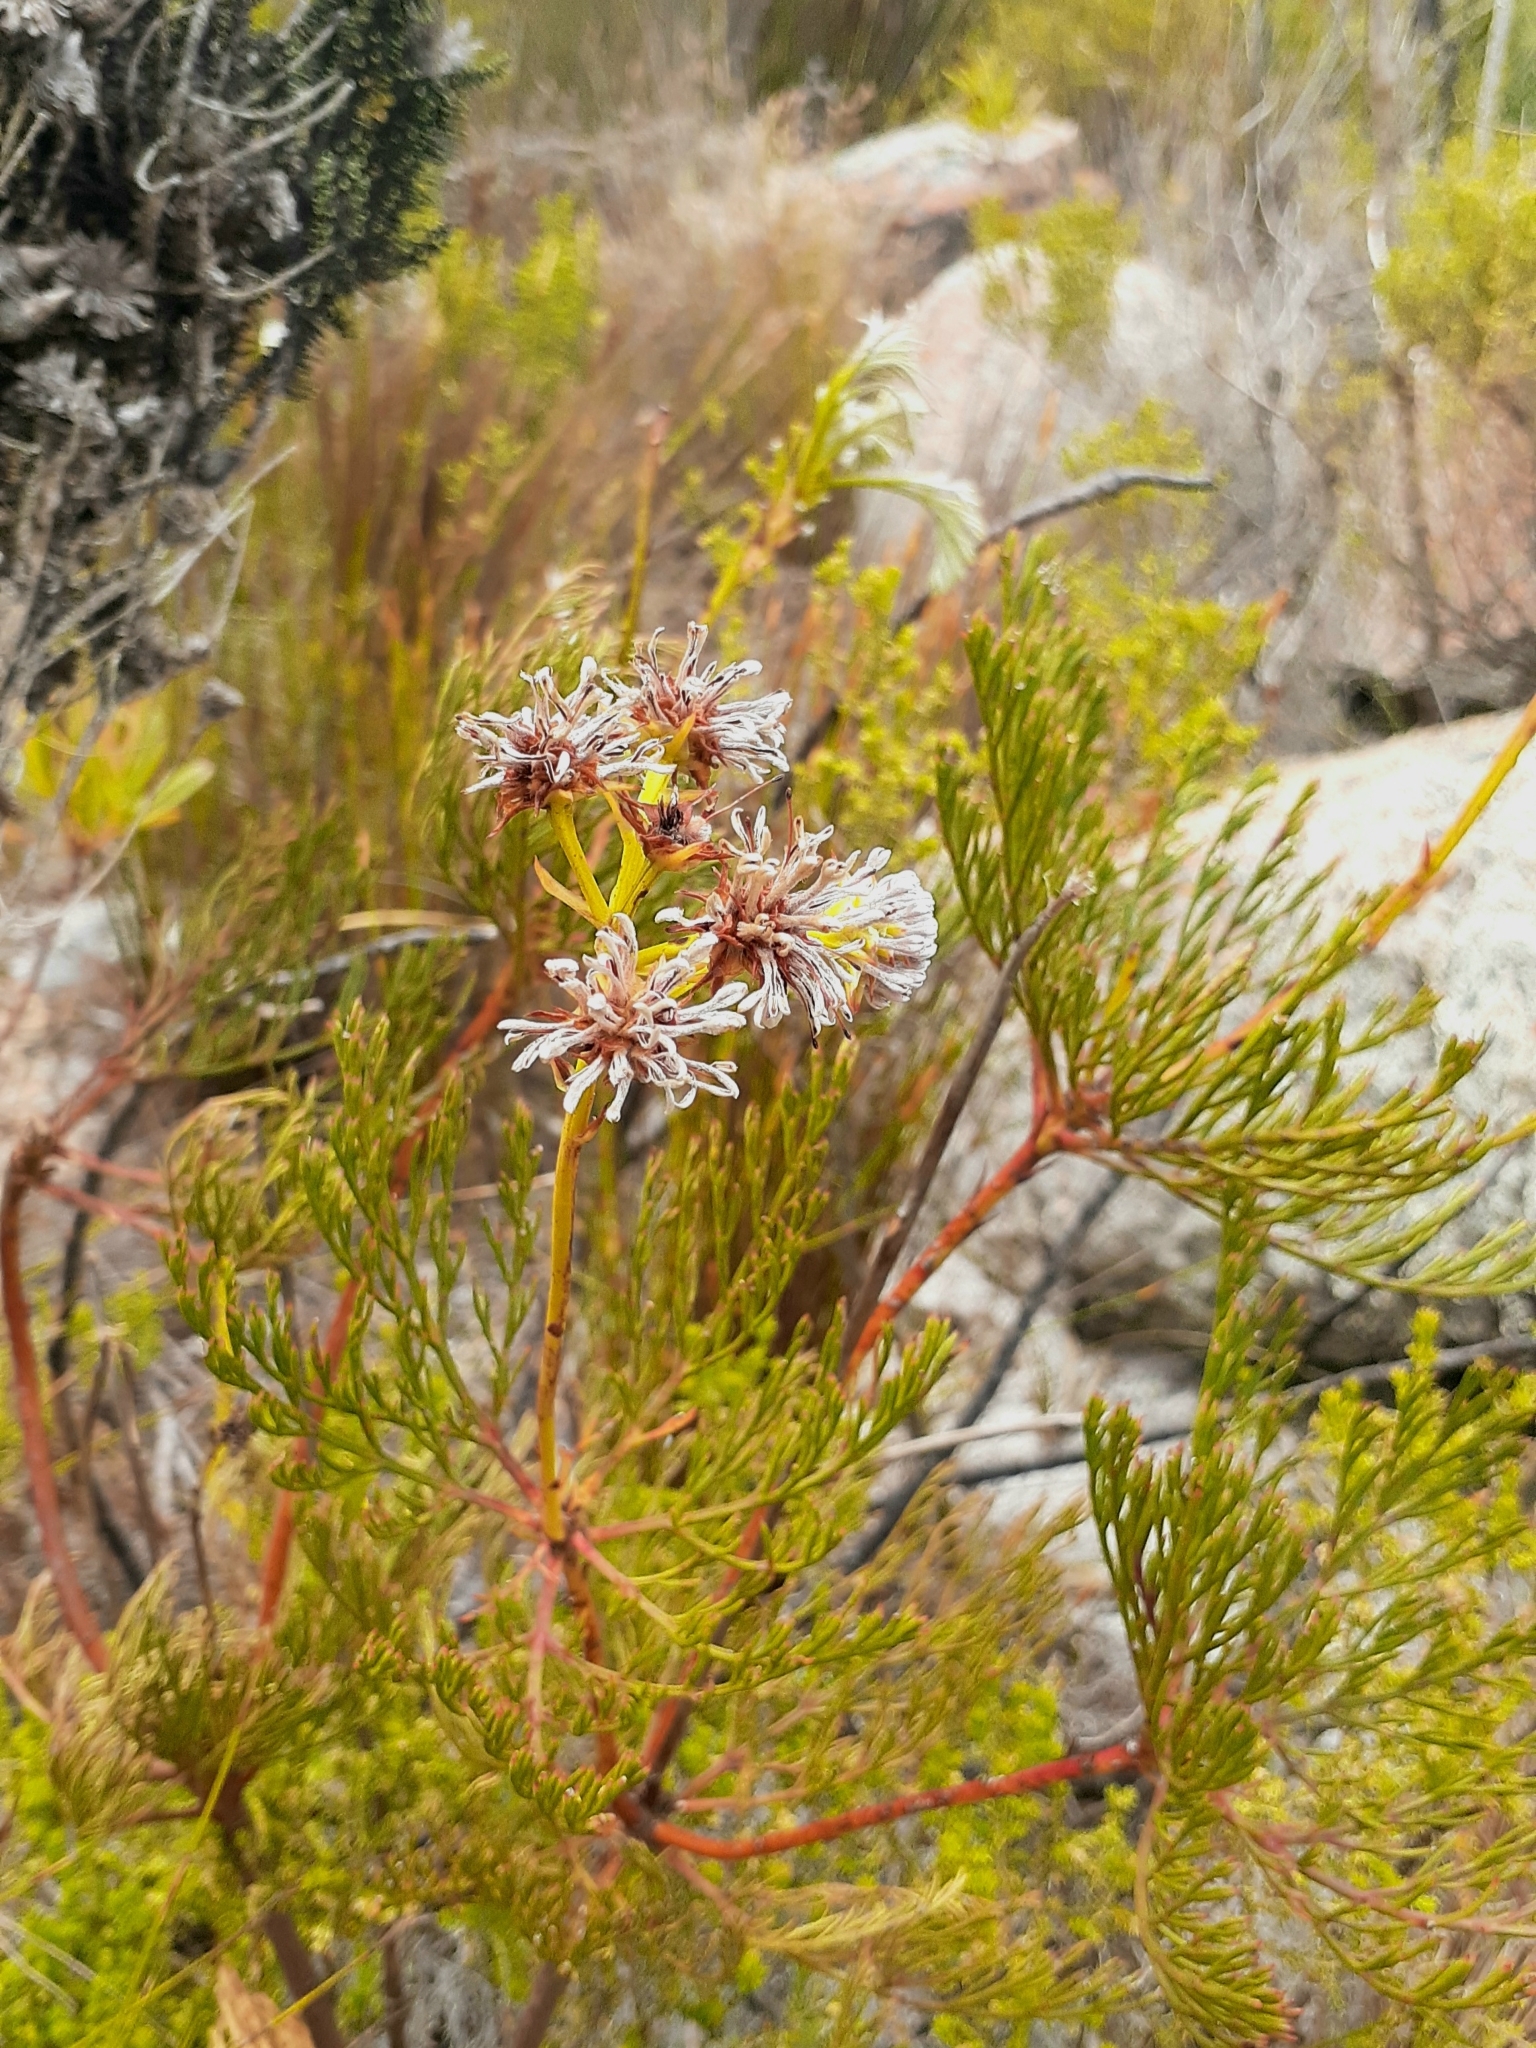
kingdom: Plantae
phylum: Tracheophyta
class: Magnoliopsida
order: Proteales
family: Proteaceae
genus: Serruria
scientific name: Serruria elongata
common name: Long-stalk spiderhead
